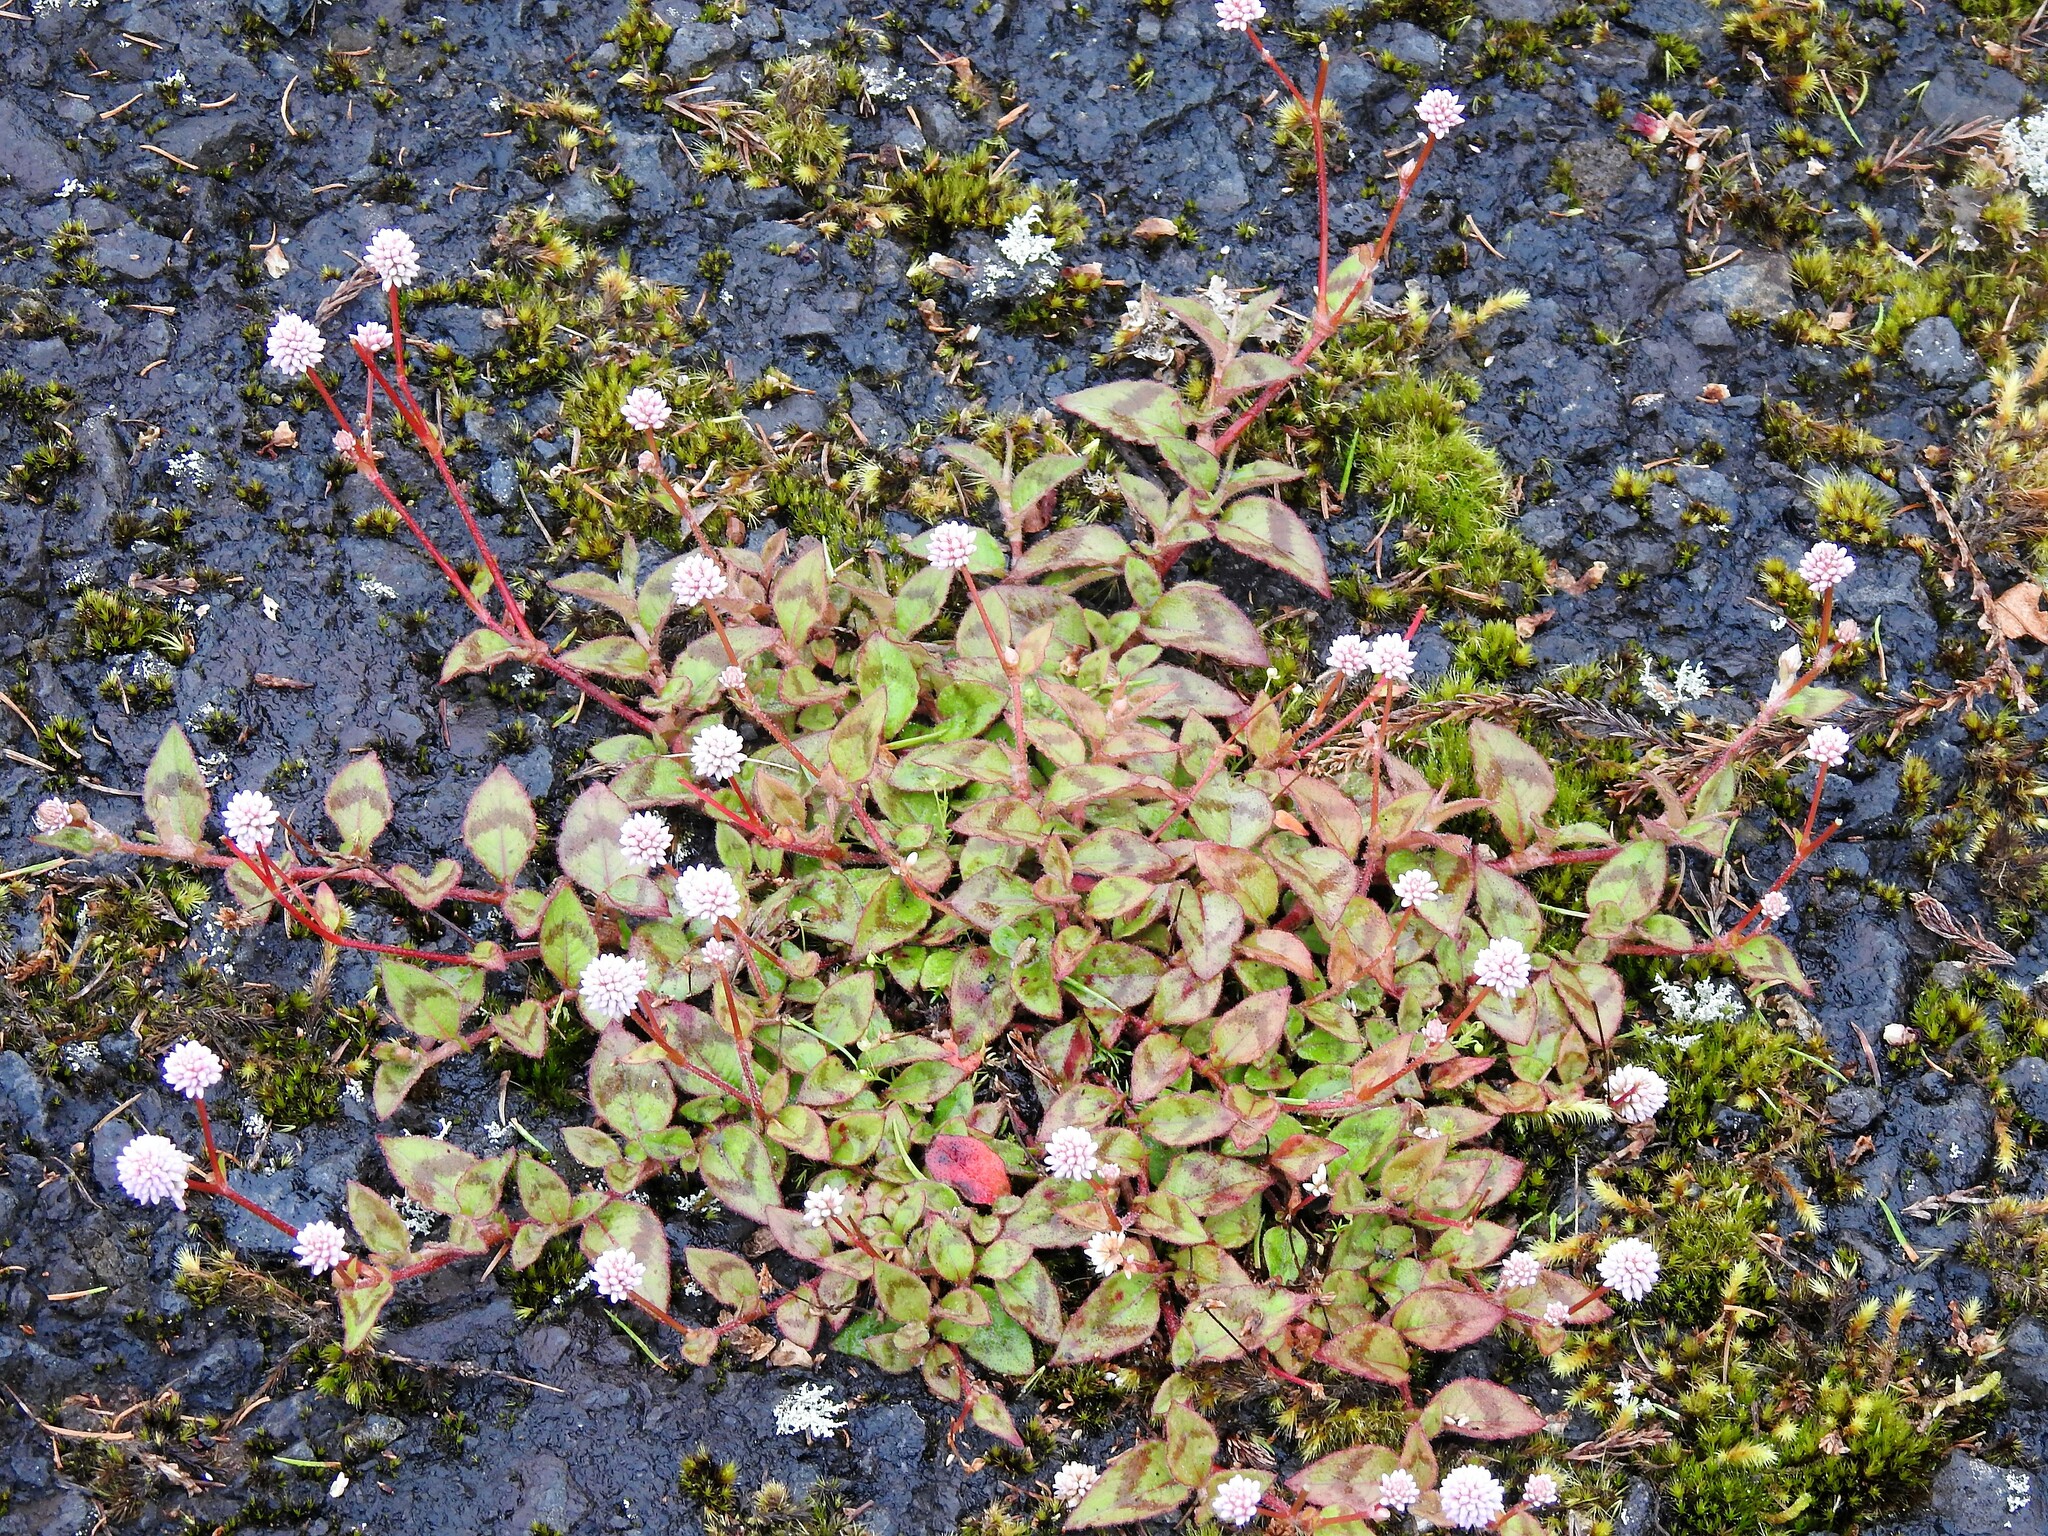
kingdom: Plantae
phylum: Tracheophyta
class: Magnoliopsida
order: Caryophyllales
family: Polygonaceae
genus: Persicaria
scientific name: Persicaria capitata
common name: Pinkhead smartweed
